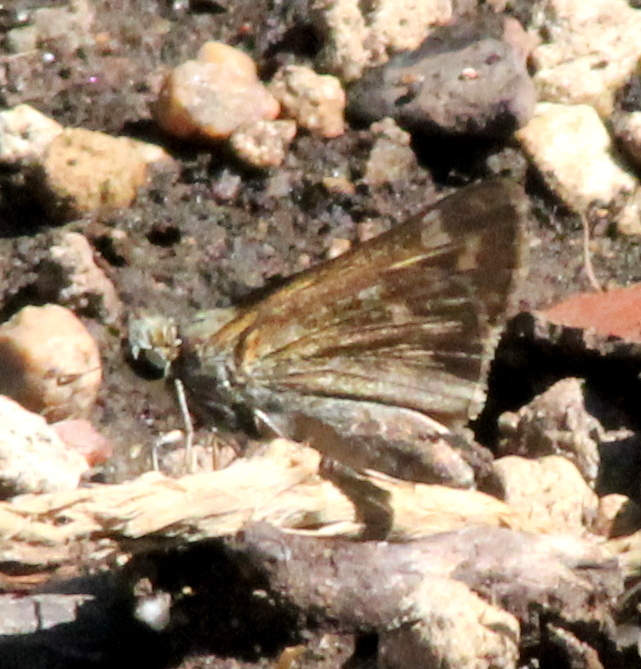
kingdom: Animalia
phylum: Arthropoda
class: Insecta
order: Lepidoptera
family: Hesperiidae
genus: Atalopedes
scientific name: Atalopedes
